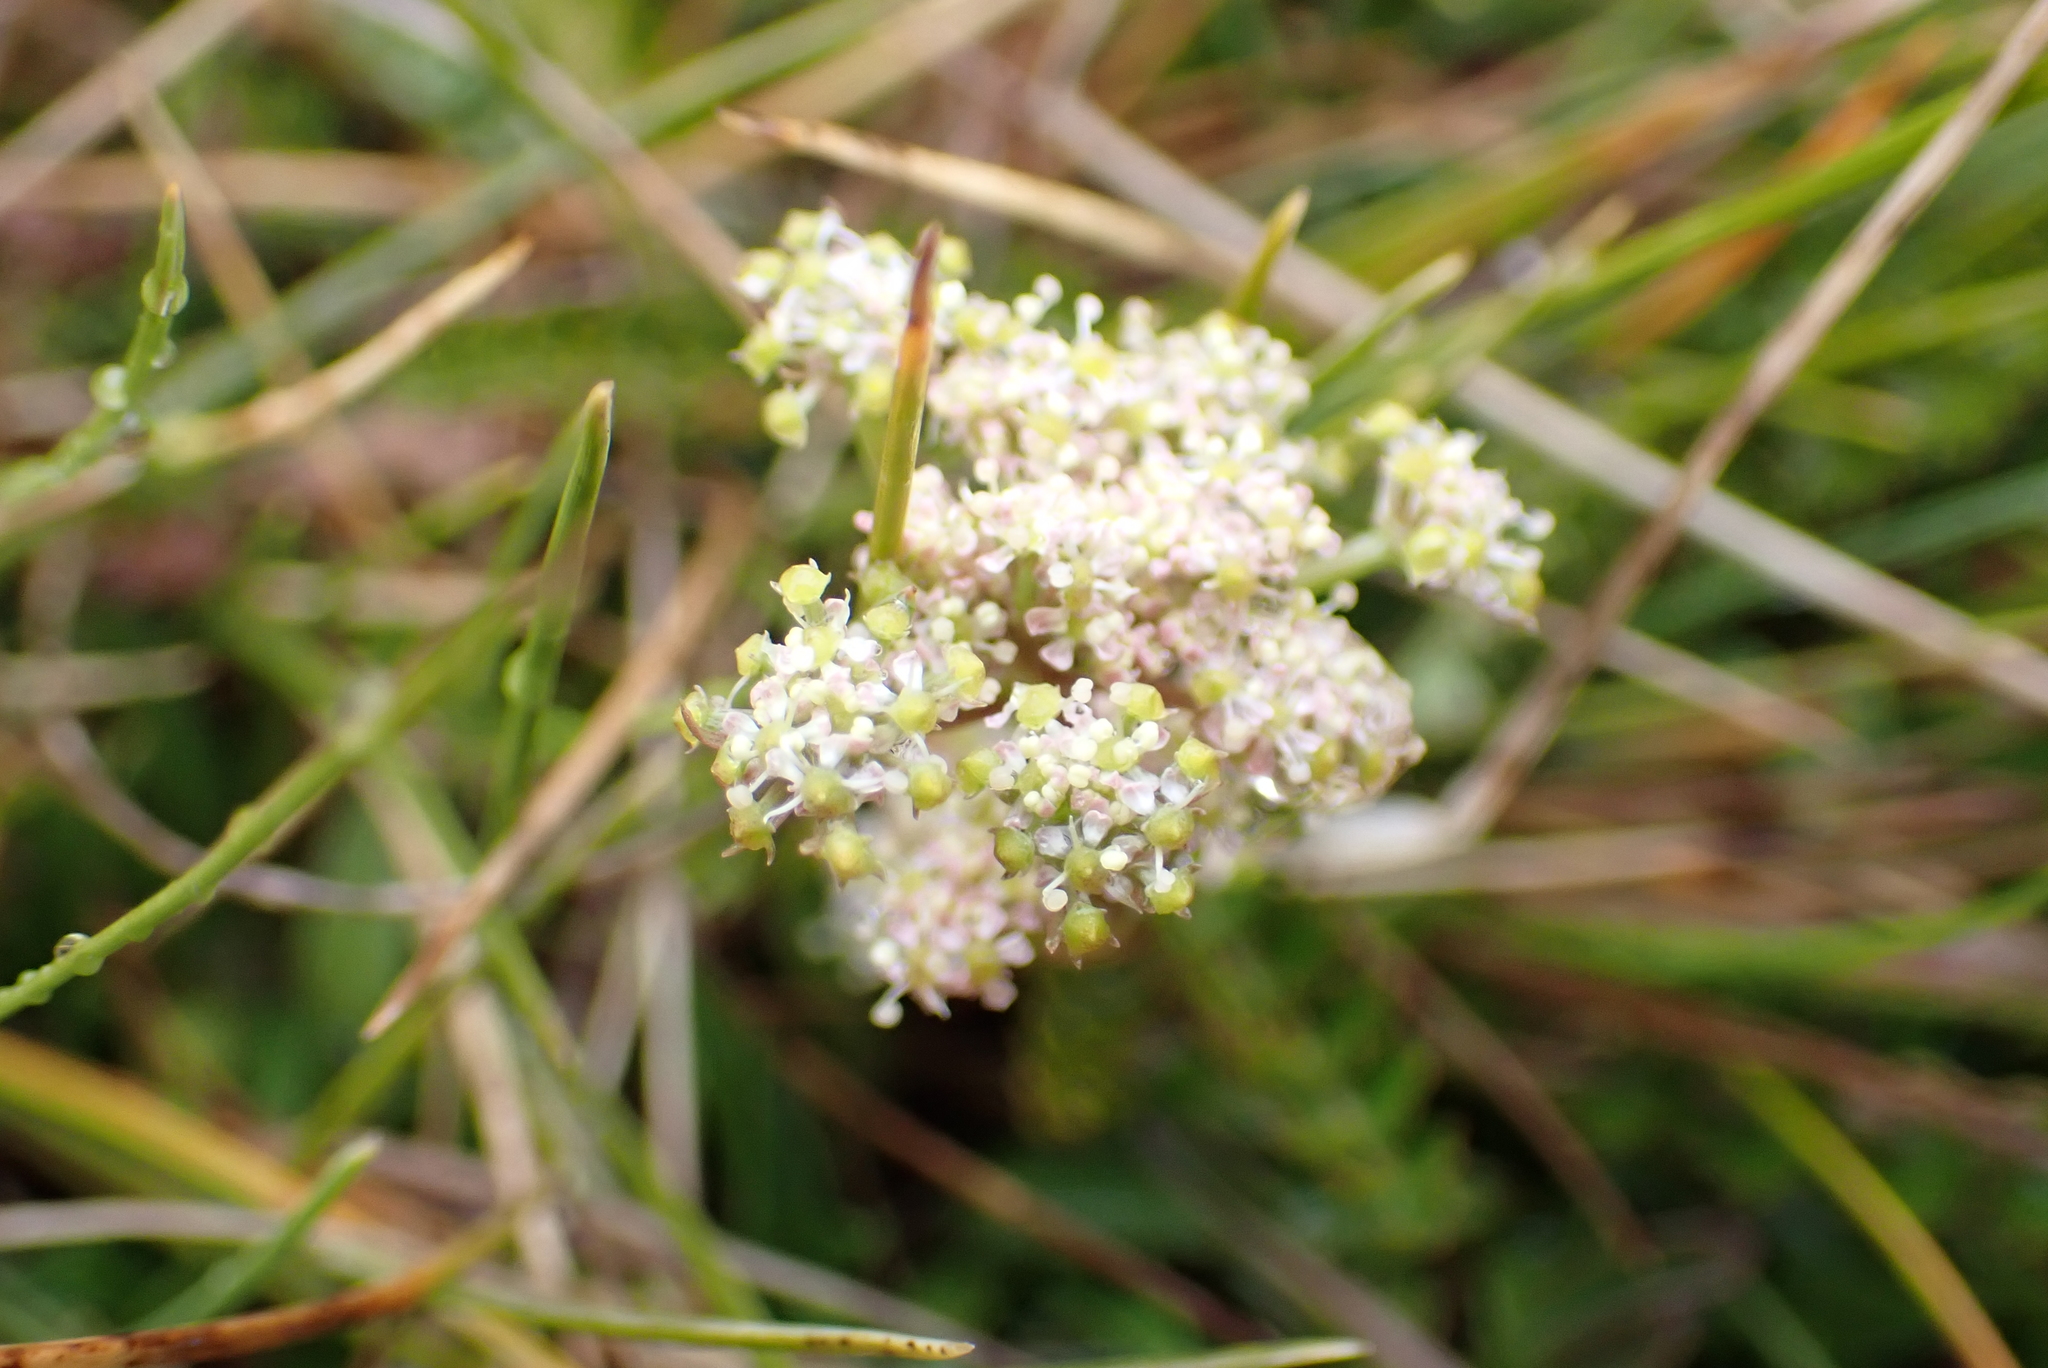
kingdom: Plantae
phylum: Tracheophyta
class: Magnoliopsida
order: Apiales
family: Apiaceae
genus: Anisotome
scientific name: Anisotome aromatica
